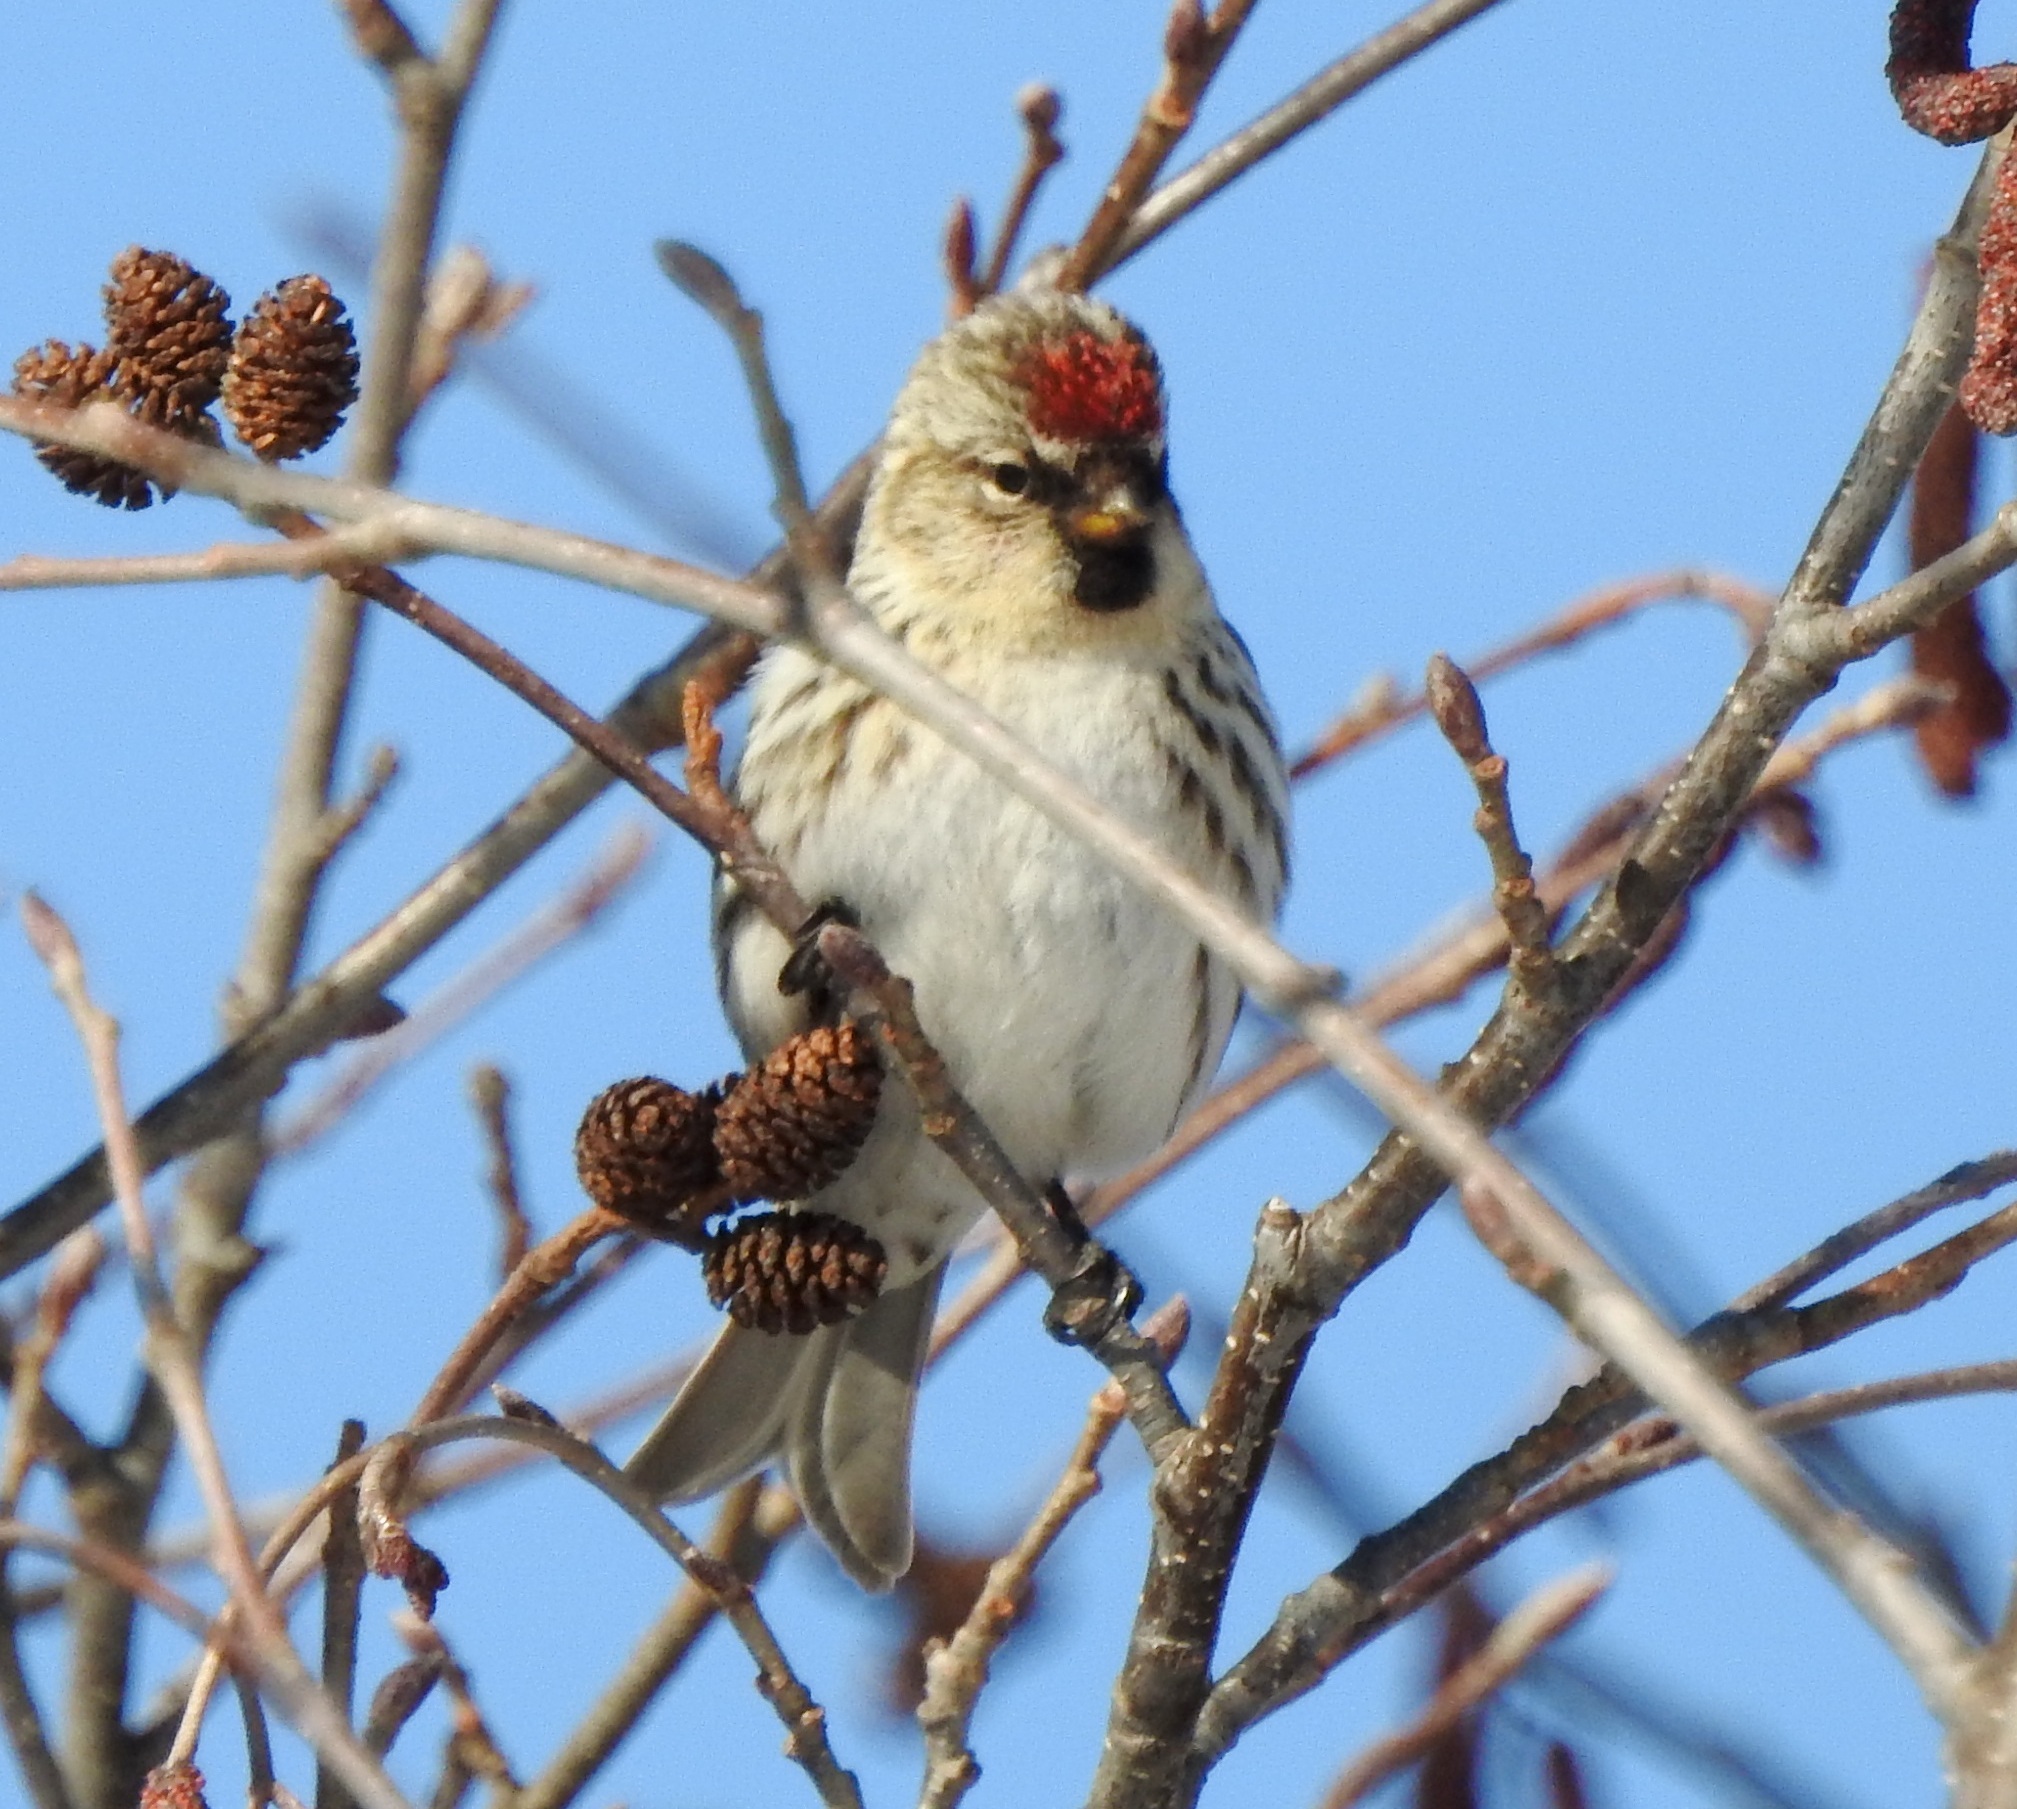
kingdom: Animalia
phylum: Chordata
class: Aves
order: Passeriformes
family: Fringillidae
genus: Acanthis
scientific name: Acanthis flammea
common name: Common redpoll
